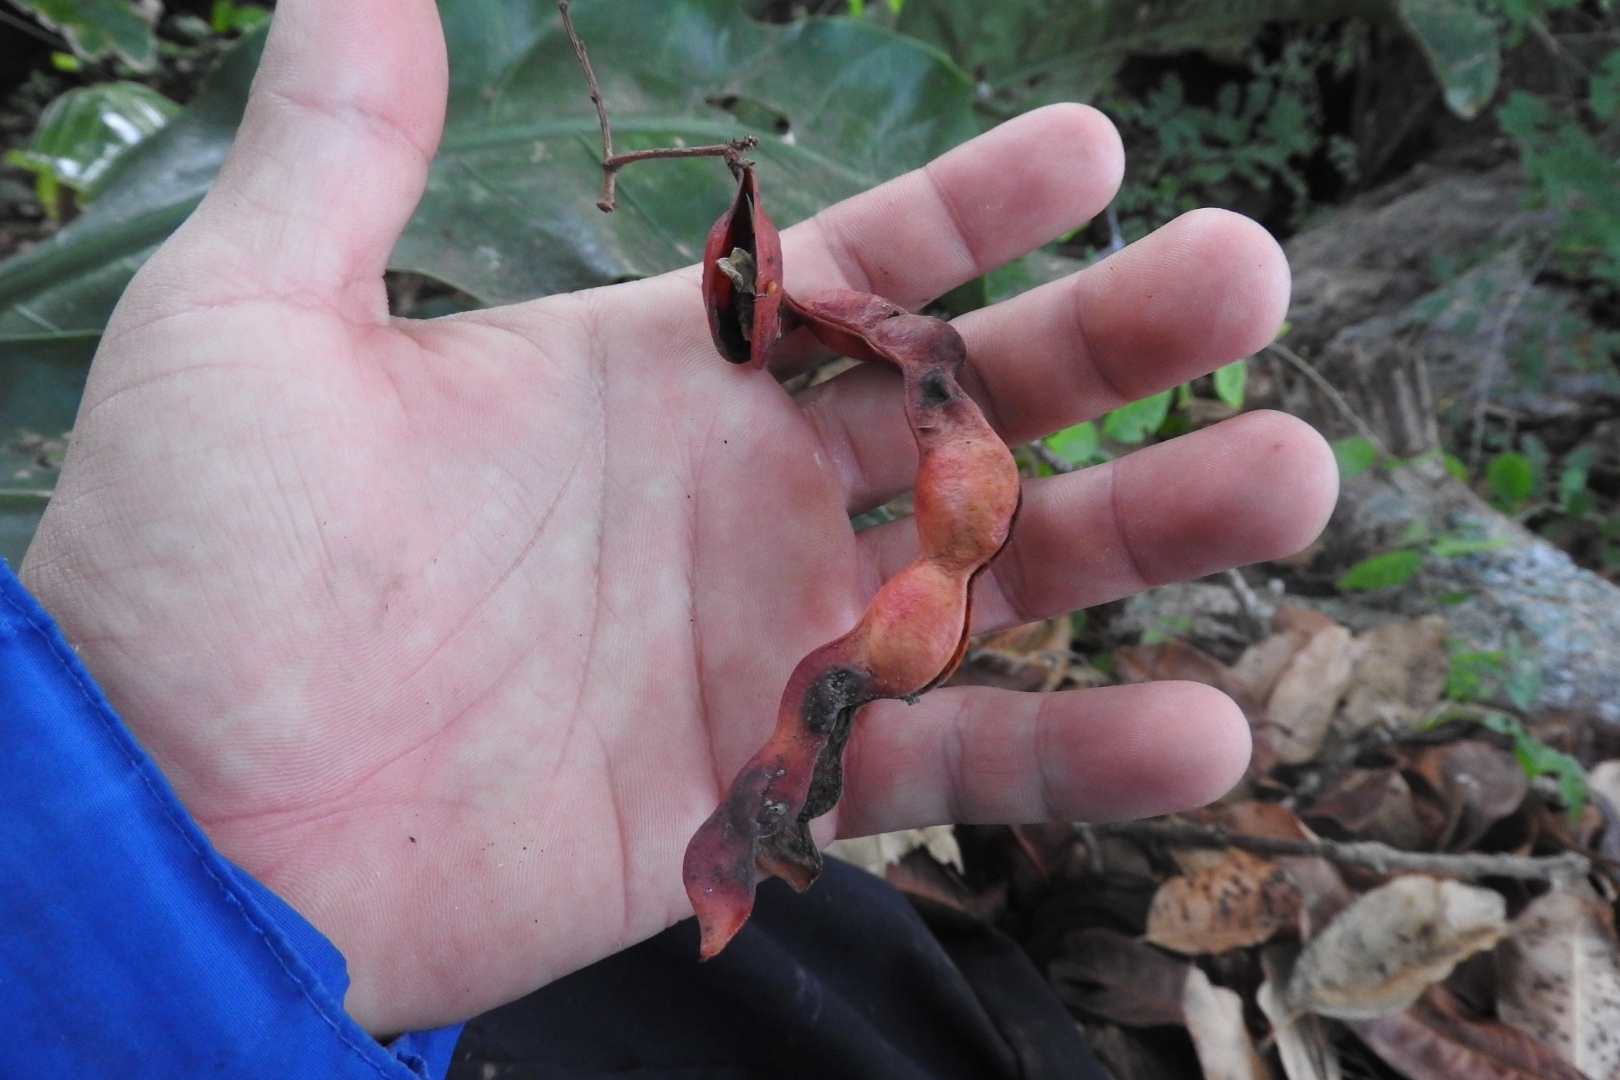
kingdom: Plantae
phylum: Tracheophyta
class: Magnoliopsida
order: Fabales
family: Fabaceae
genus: Pithecellobium
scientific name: Pithecellobium dulce
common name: Monkeypod
